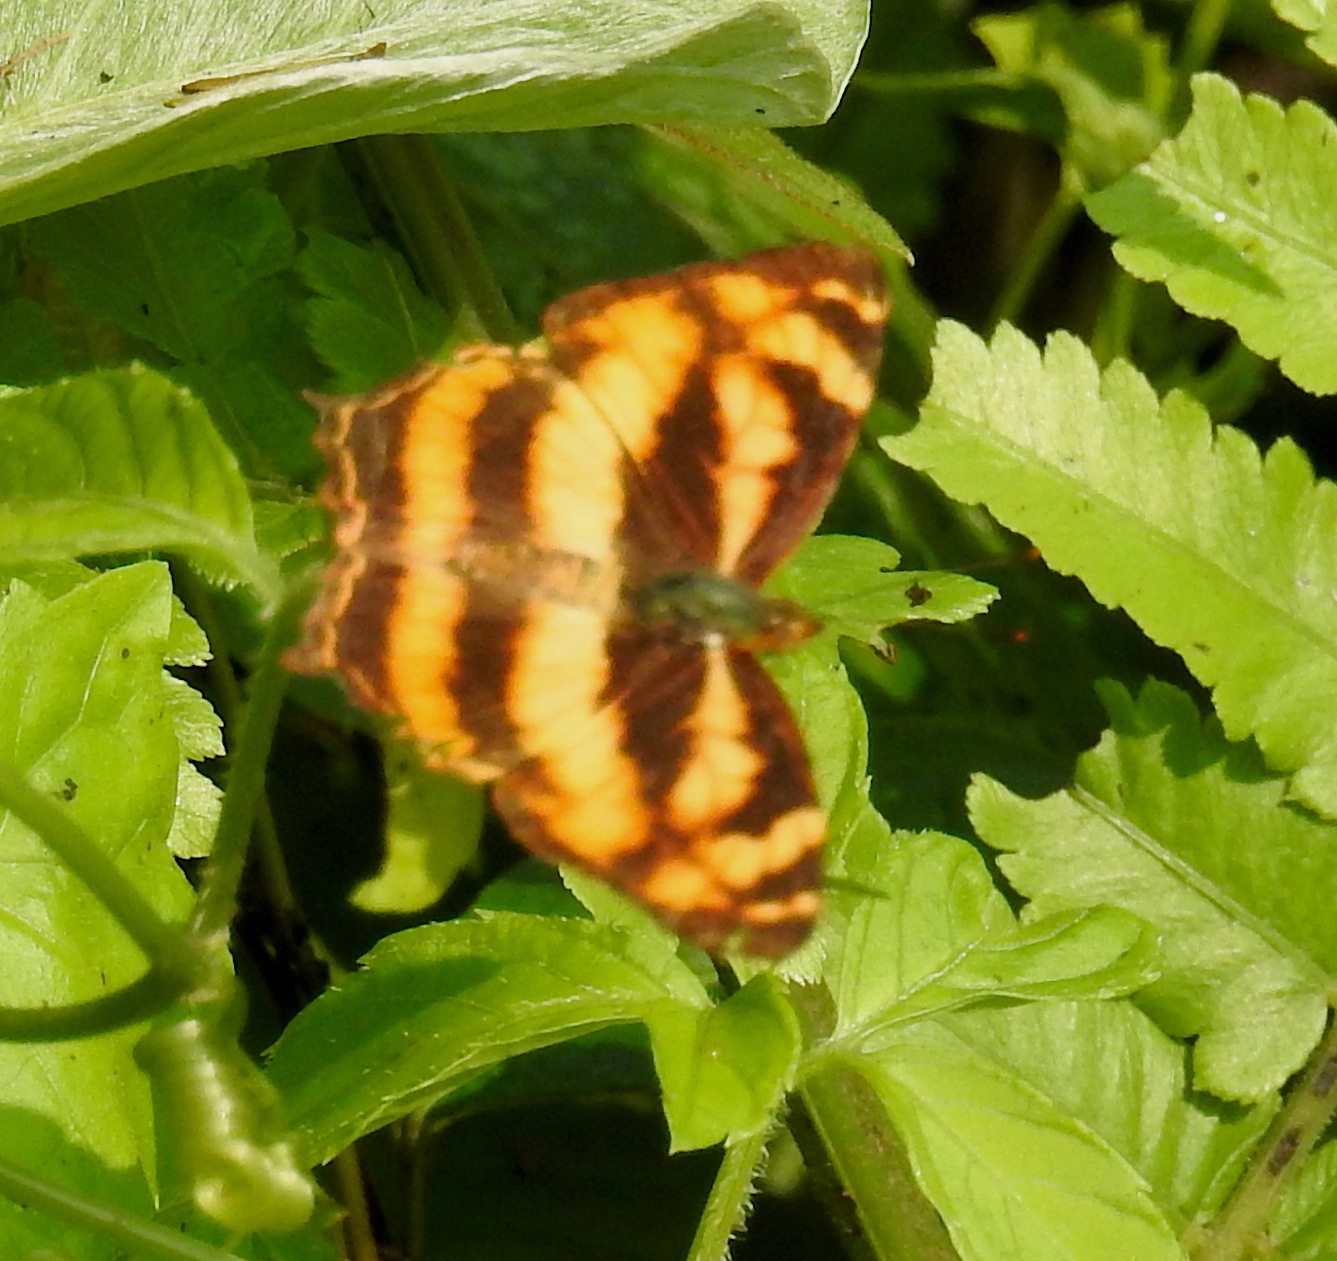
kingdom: Animalia
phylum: Arthropoda
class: Insecta
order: Lepidoptera
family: Nymphalidae
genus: Symbrenthia
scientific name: Symbrenthia hypselis
